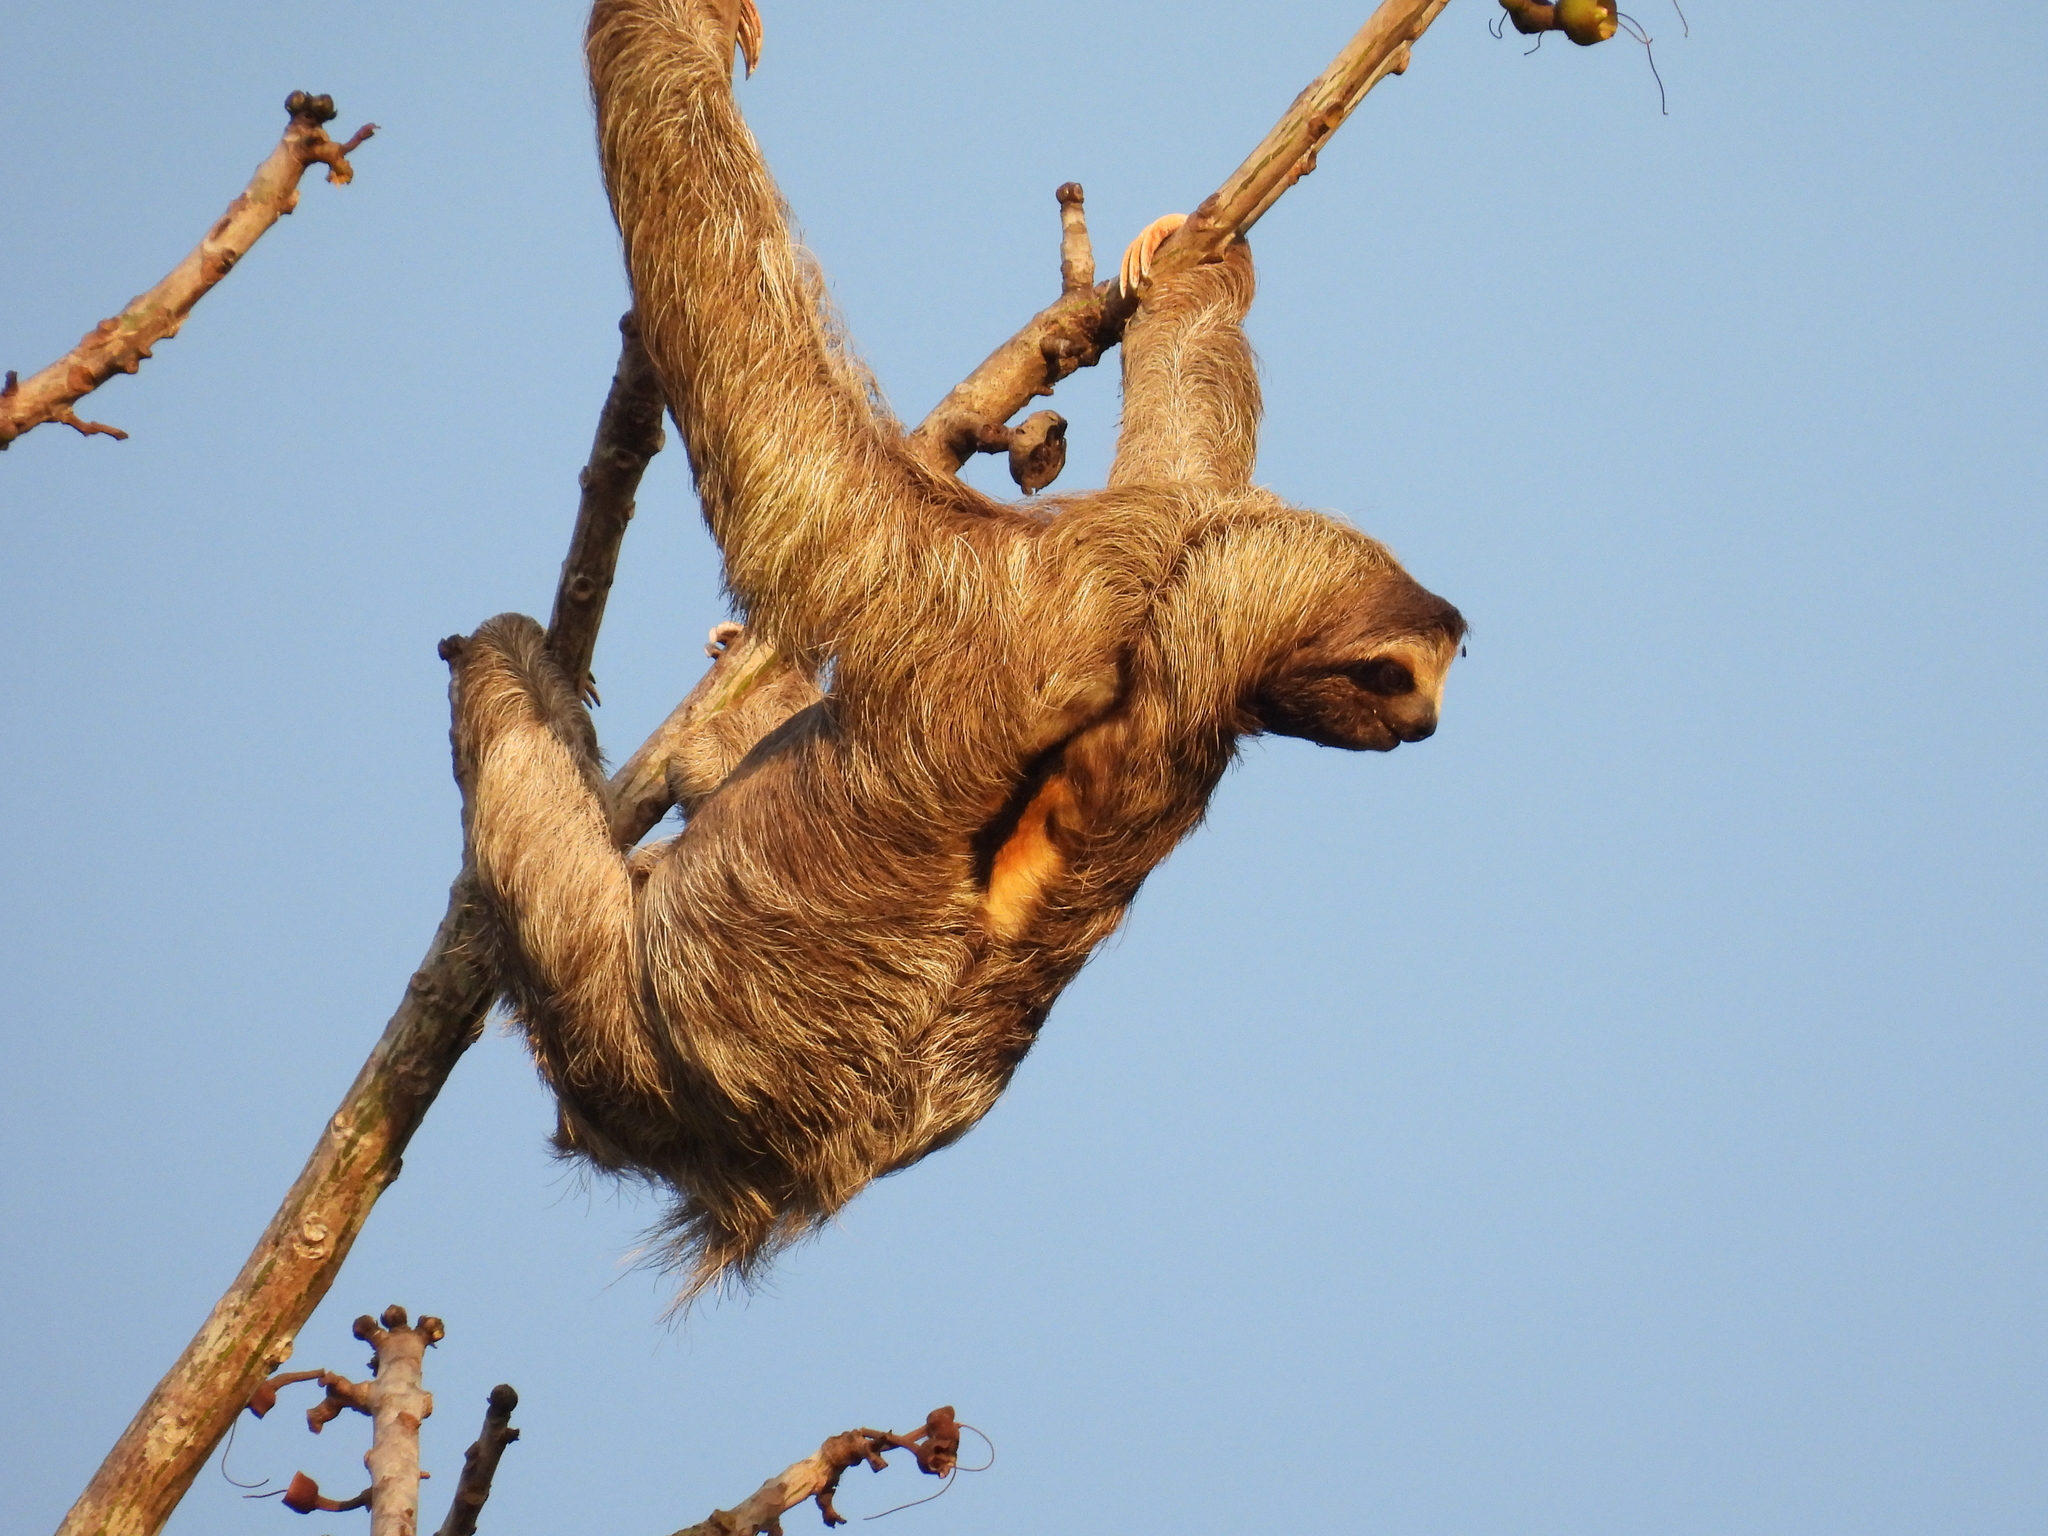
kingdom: Animalia
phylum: Chordata
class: Mammalia
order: Pilosa
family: Bradypodidae
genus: Bradypus
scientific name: Bradypus variegatus
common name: Brown-throated three-toed sloth
